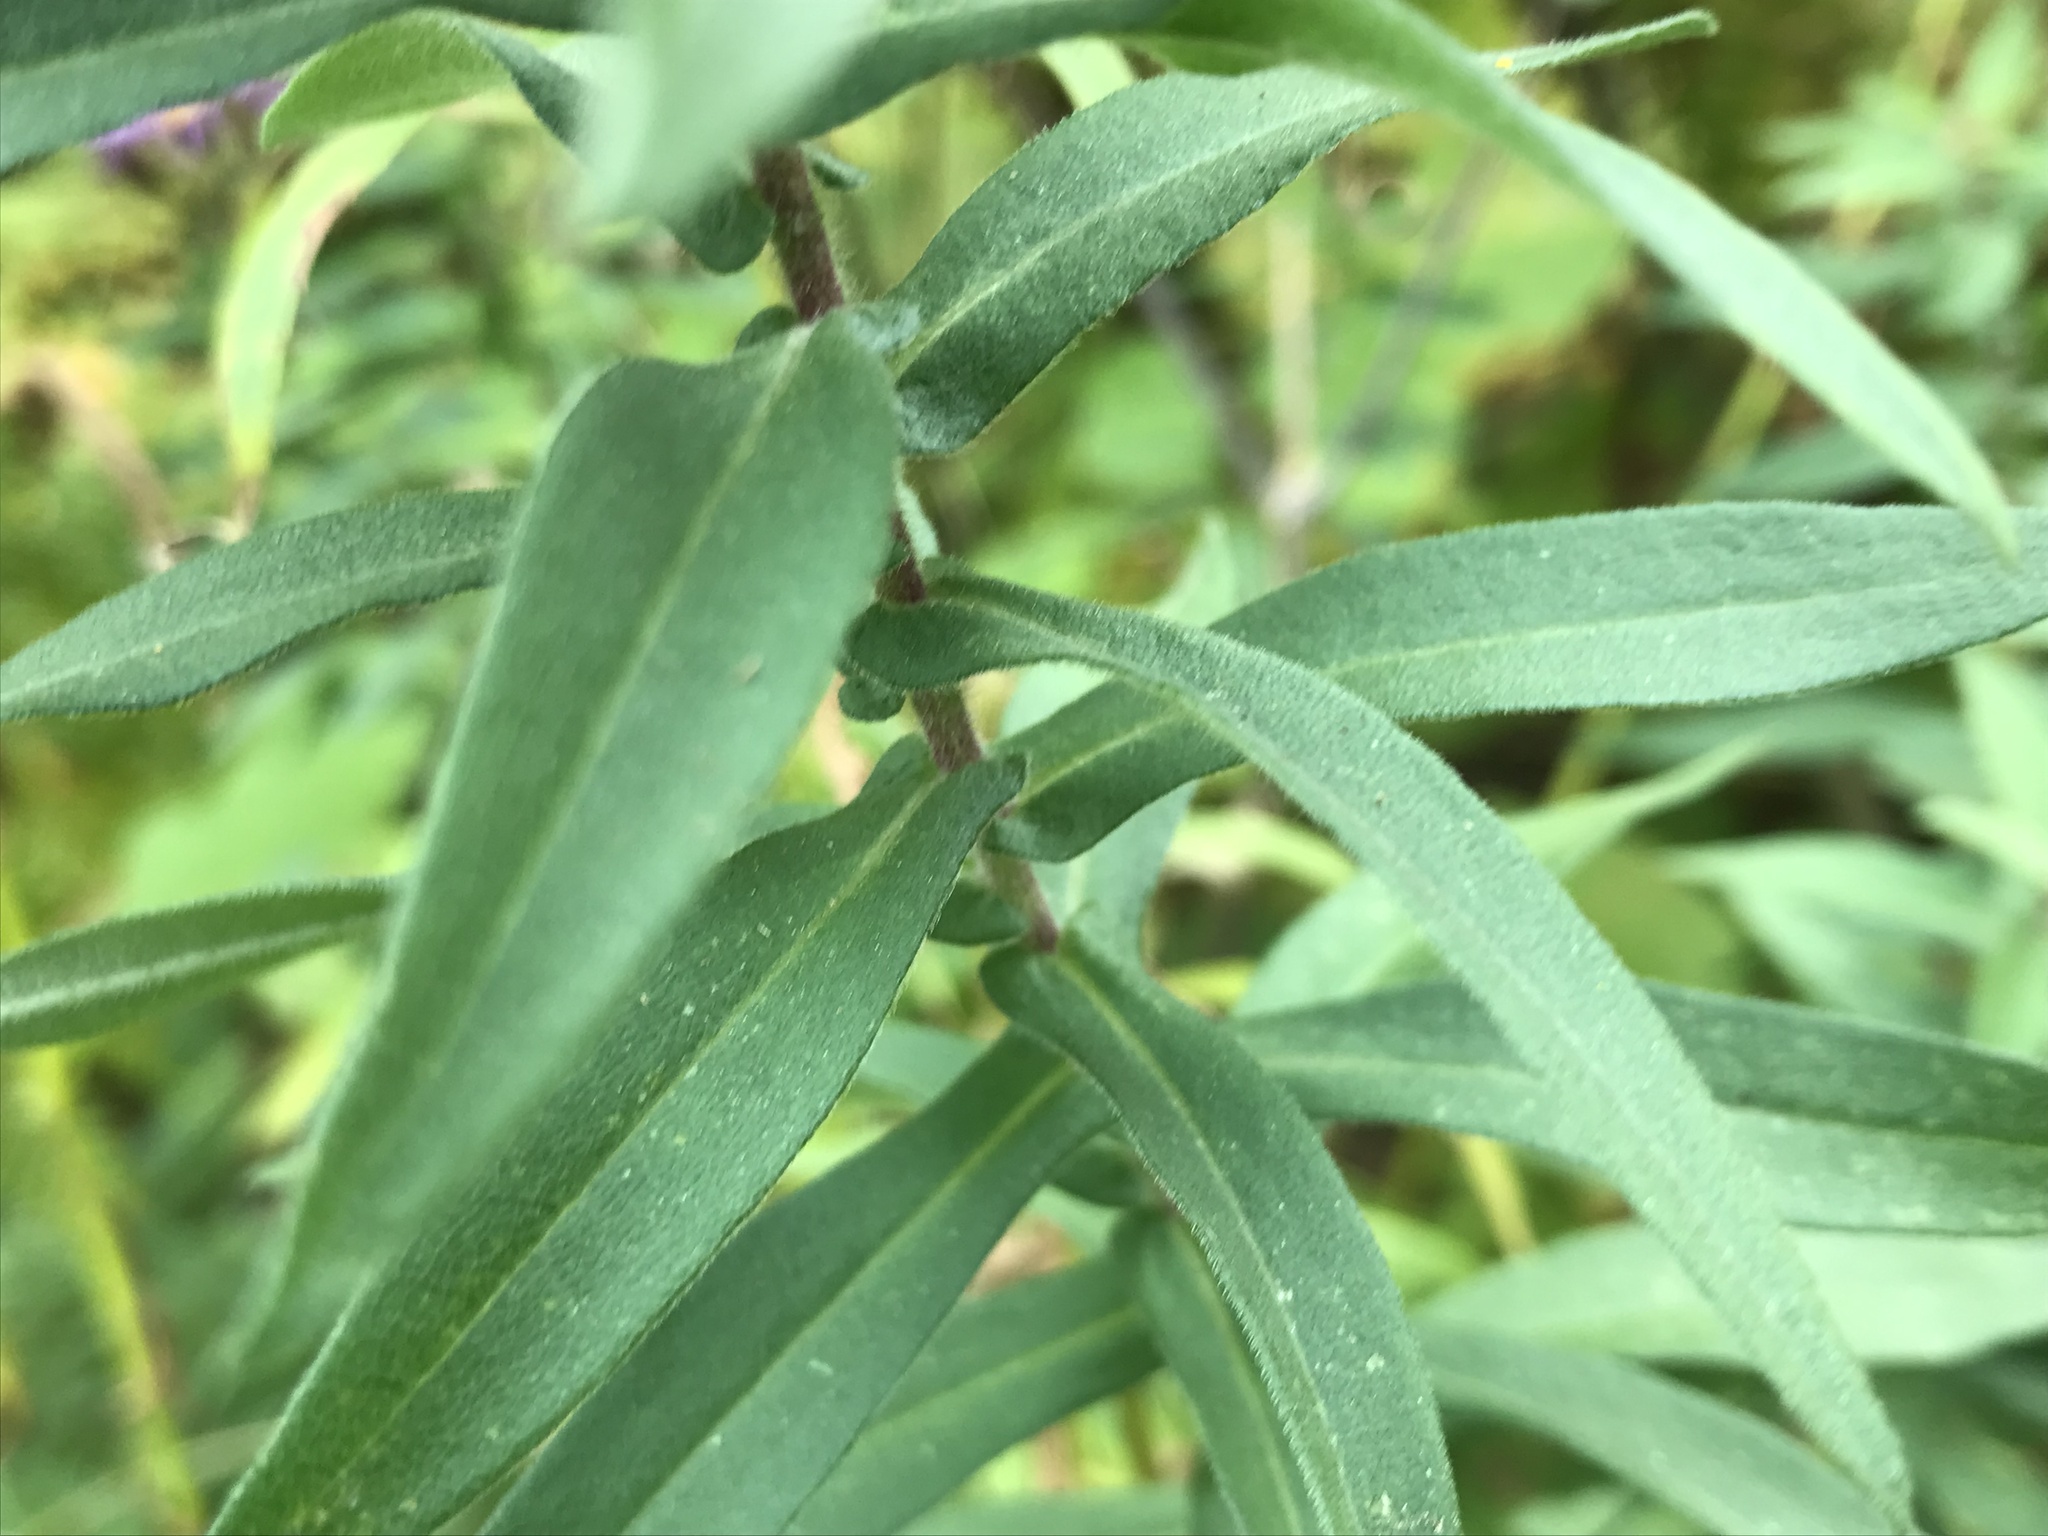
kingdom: Plantae
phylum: Tracheophyta
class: Magnoliopsida
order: Asterales
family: Asteraceae
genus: Symphyotrichum
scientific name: Symphyotrichum novae-angliae
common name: Michaelmas daisy
